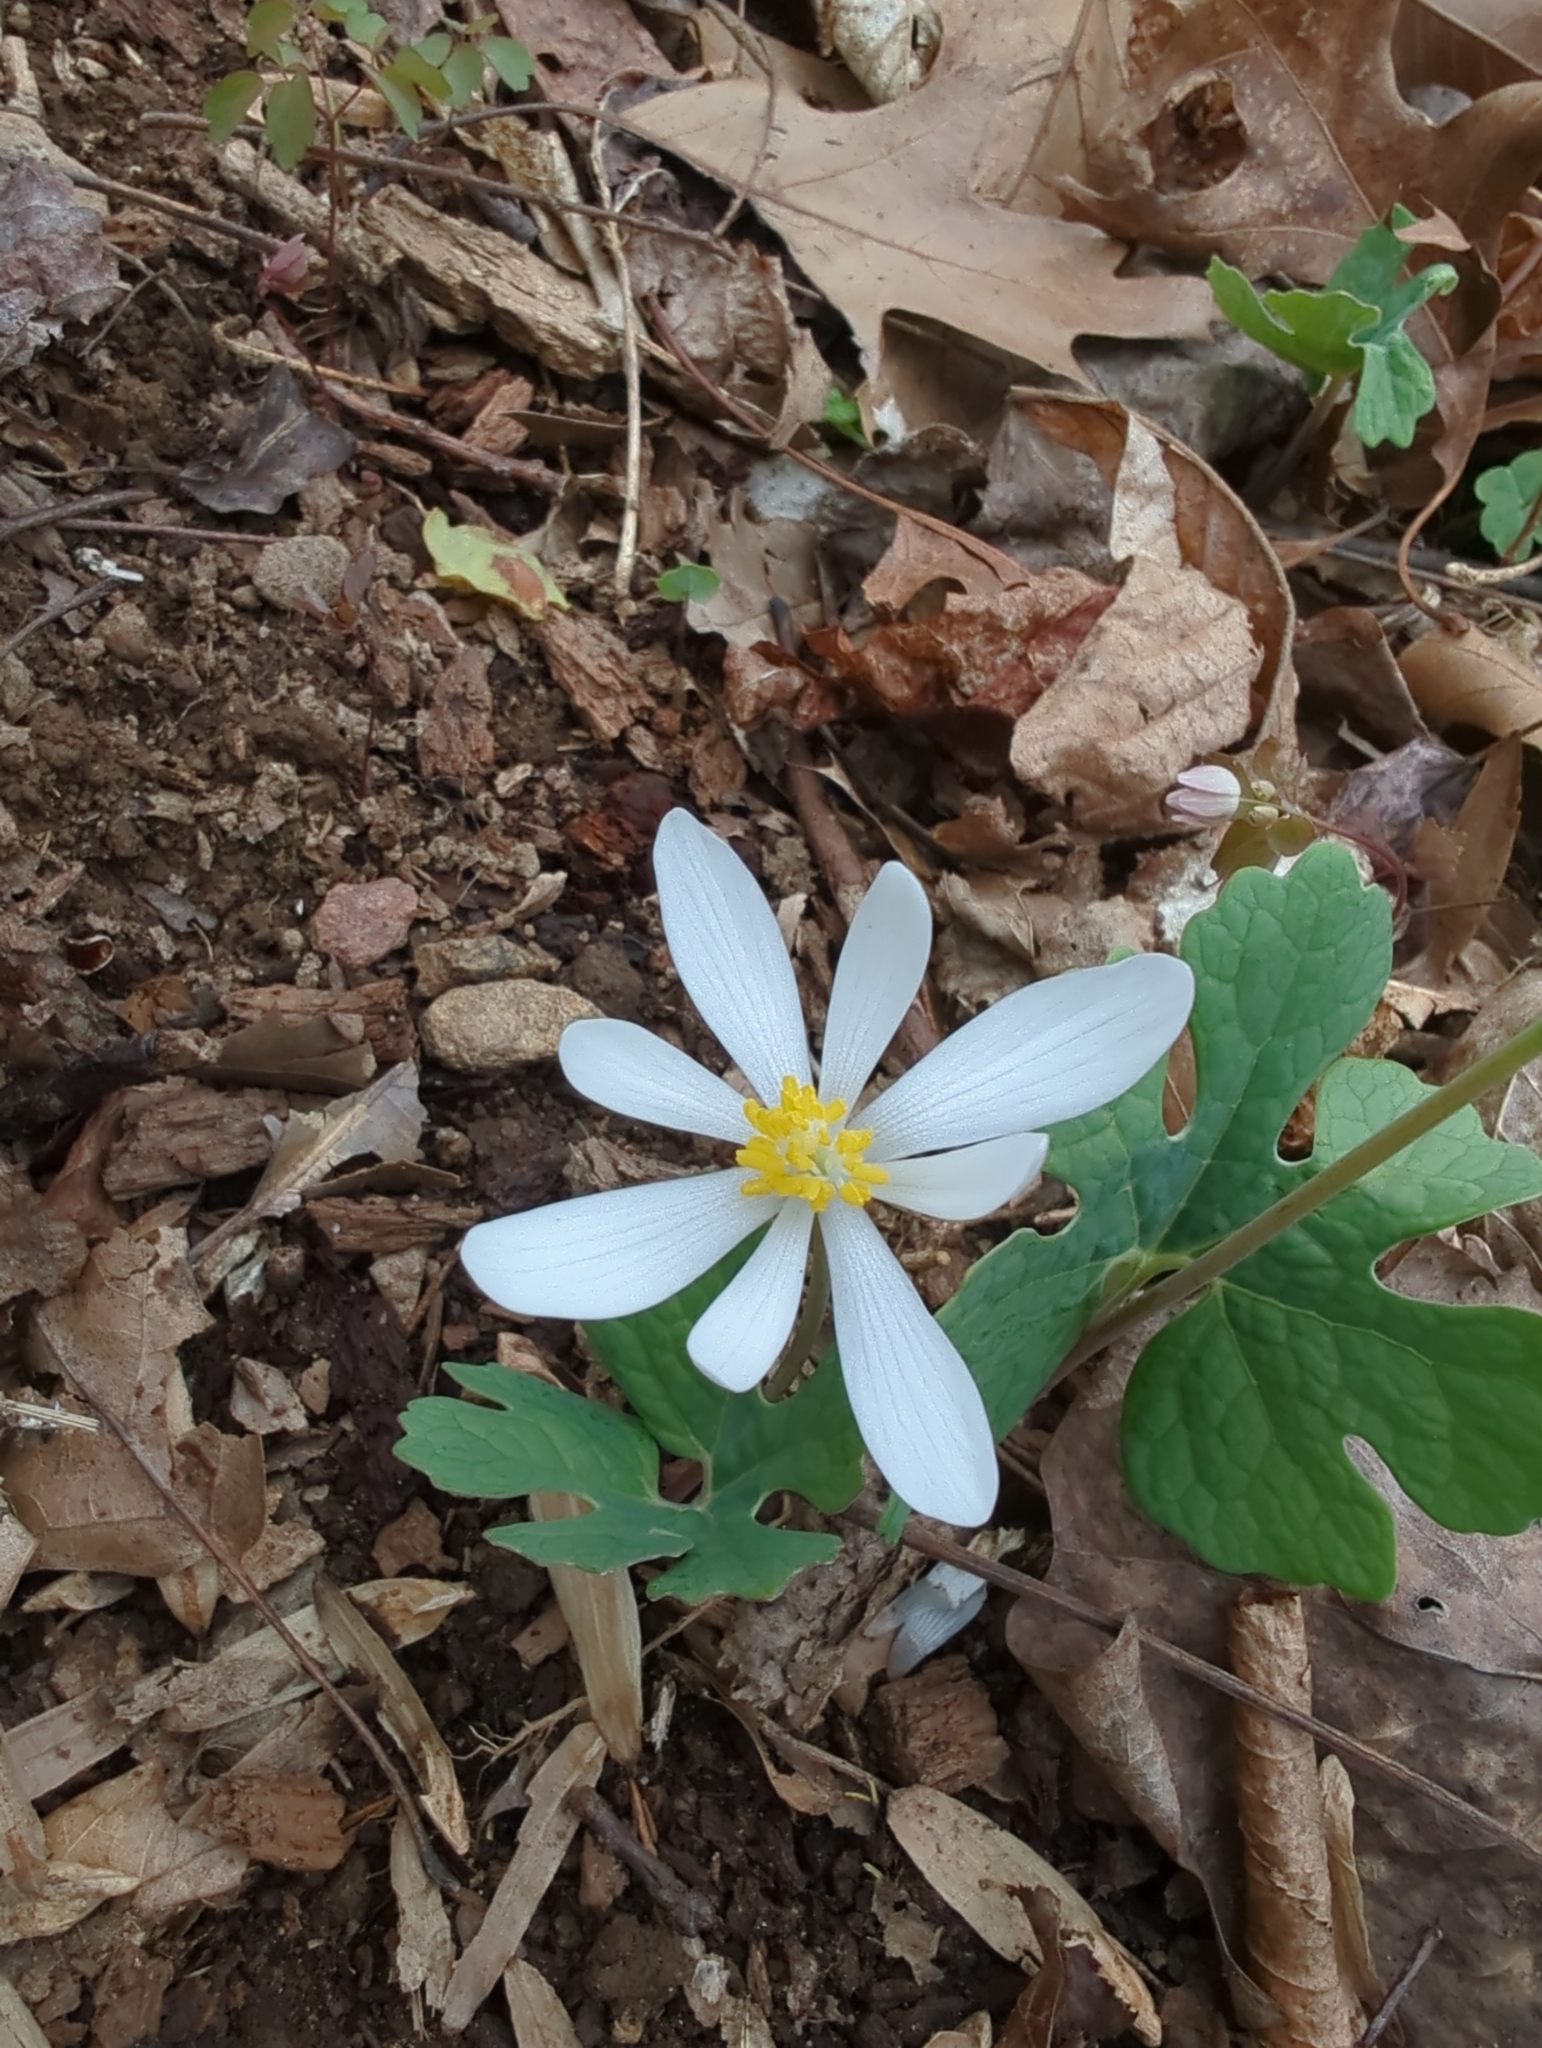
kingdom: Plantae
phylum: Tracheophyta
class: Magnoliopsida
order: Ranunculales
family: Papaveraceae
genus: Sanguinaria
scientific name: Sanguinaria canadensis
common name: Bloodroot
